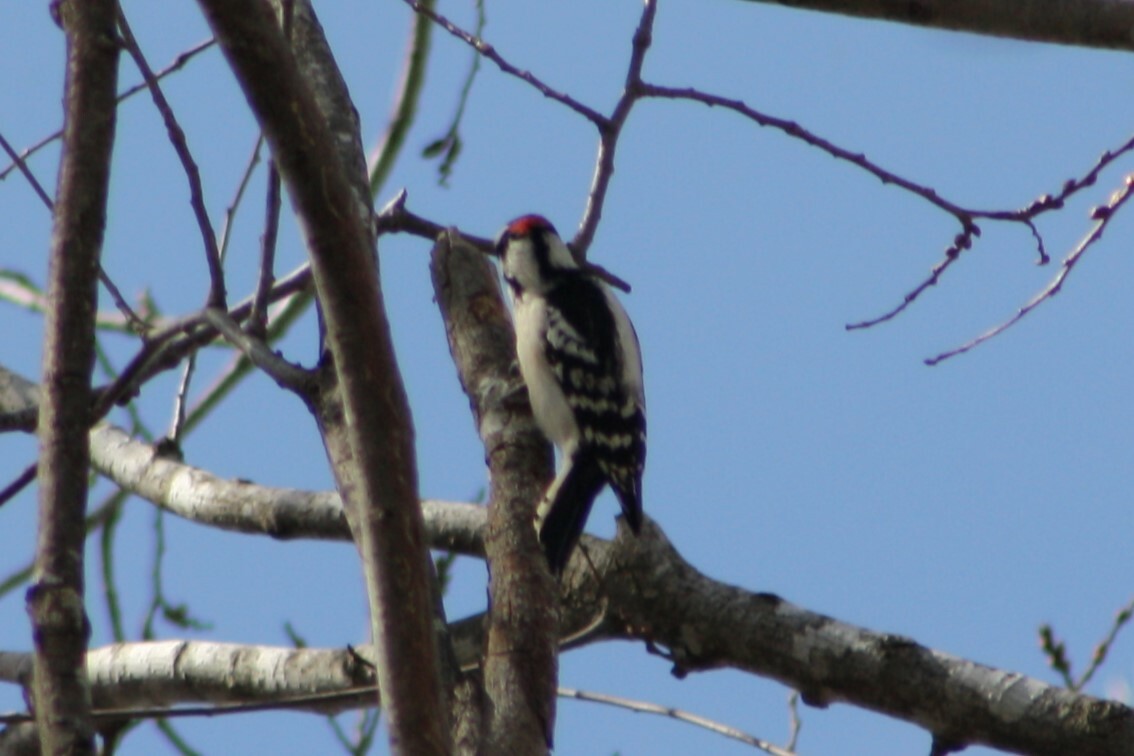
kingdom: Animalia
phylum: Chordata
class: Aves
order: Piciformes
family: Picidae
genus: Dryobates
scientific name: Dryobates pubescens
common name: Downy woodpecker
